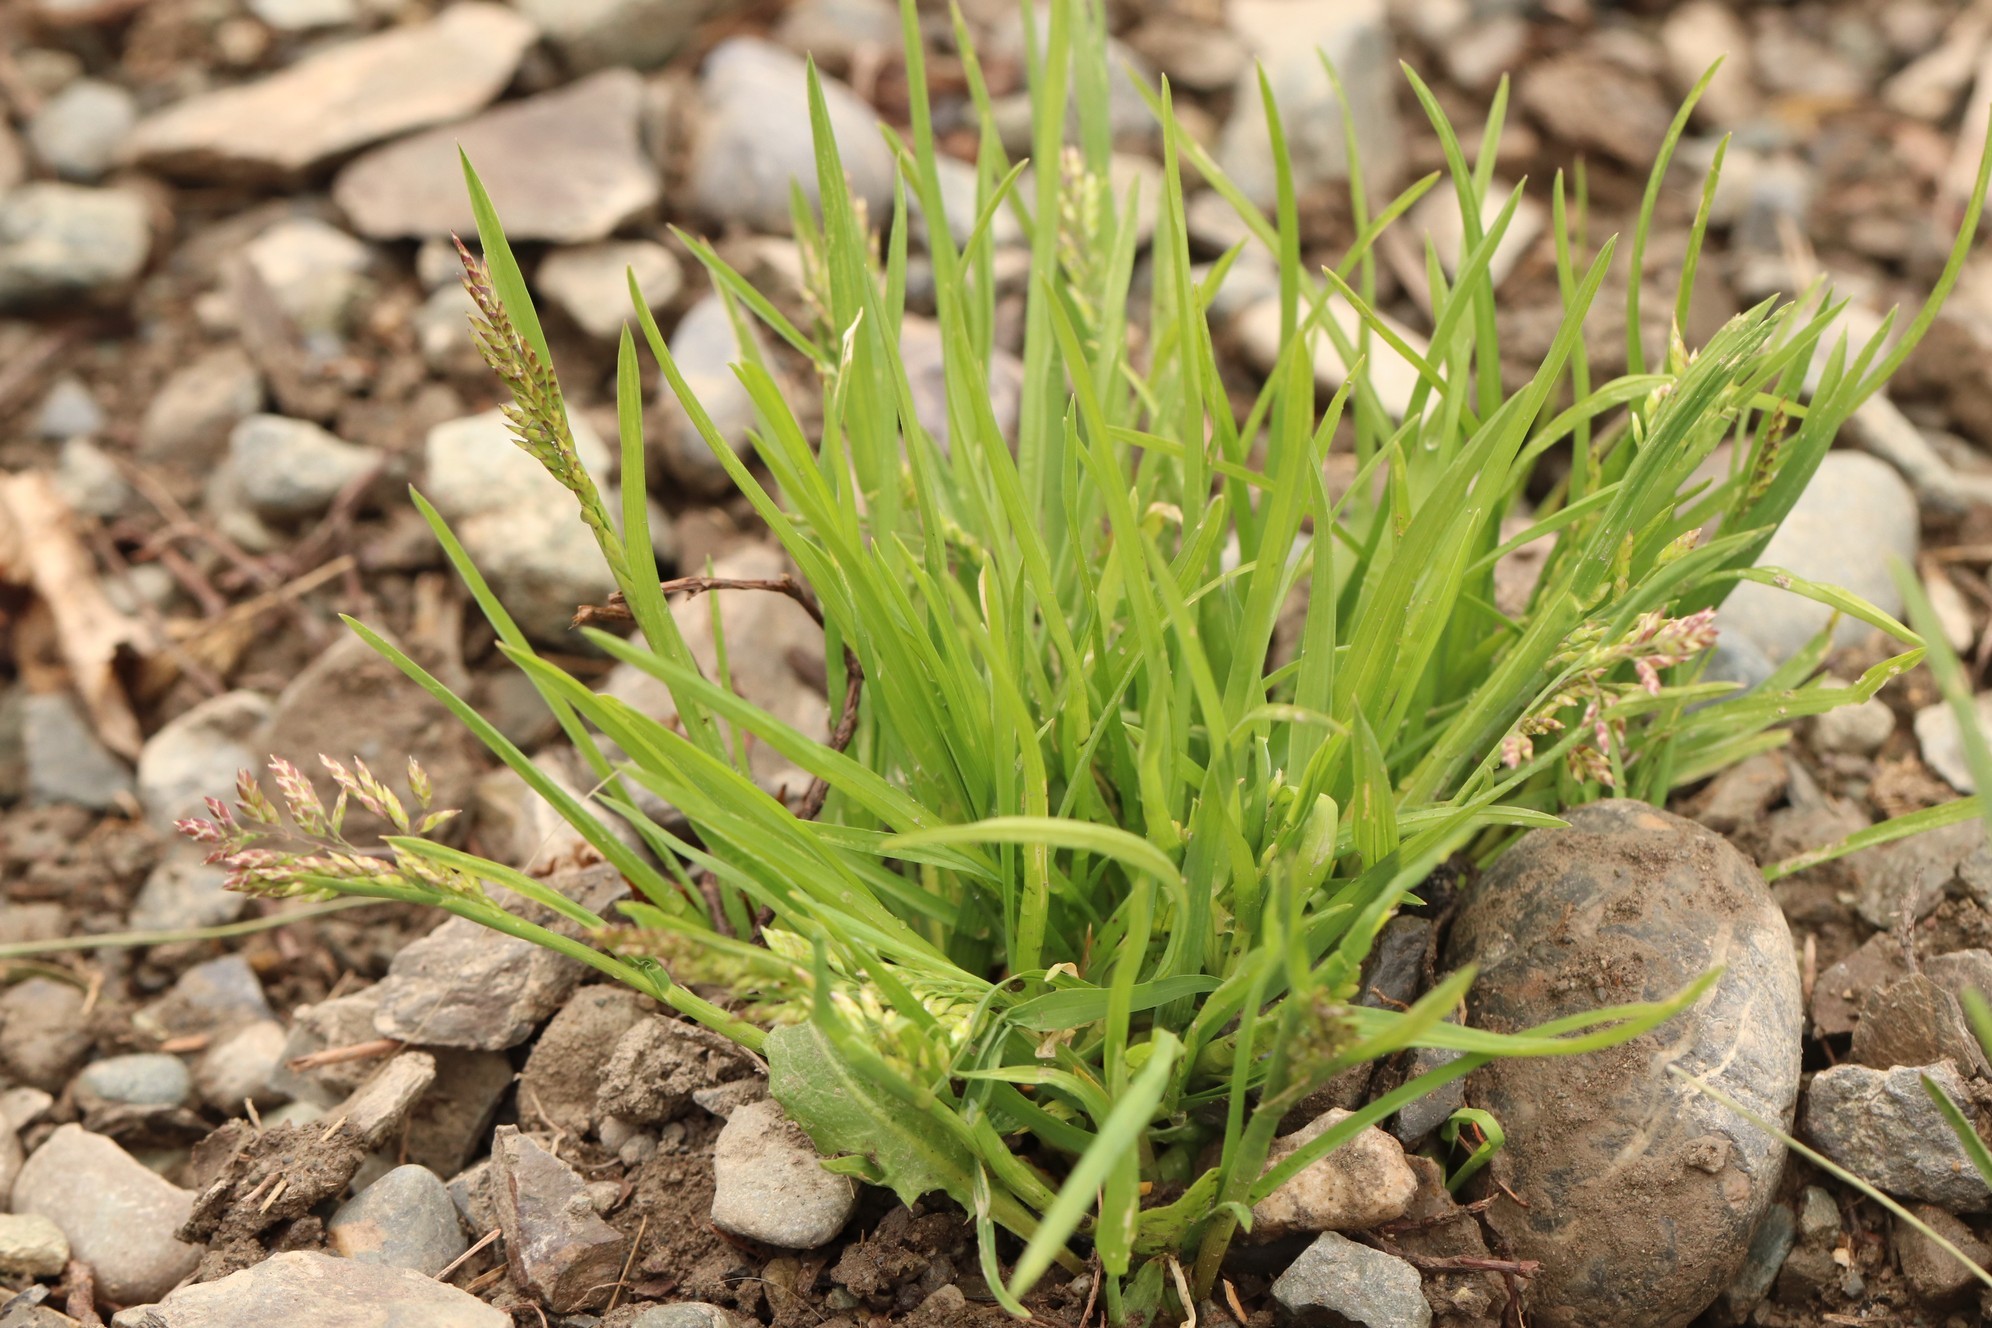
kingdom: Plantae
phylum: Tracheophyta
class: Liliopsida
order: Poales
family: Poaceae
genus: Poa
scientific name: Poa annua
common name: Annual bluegrass
